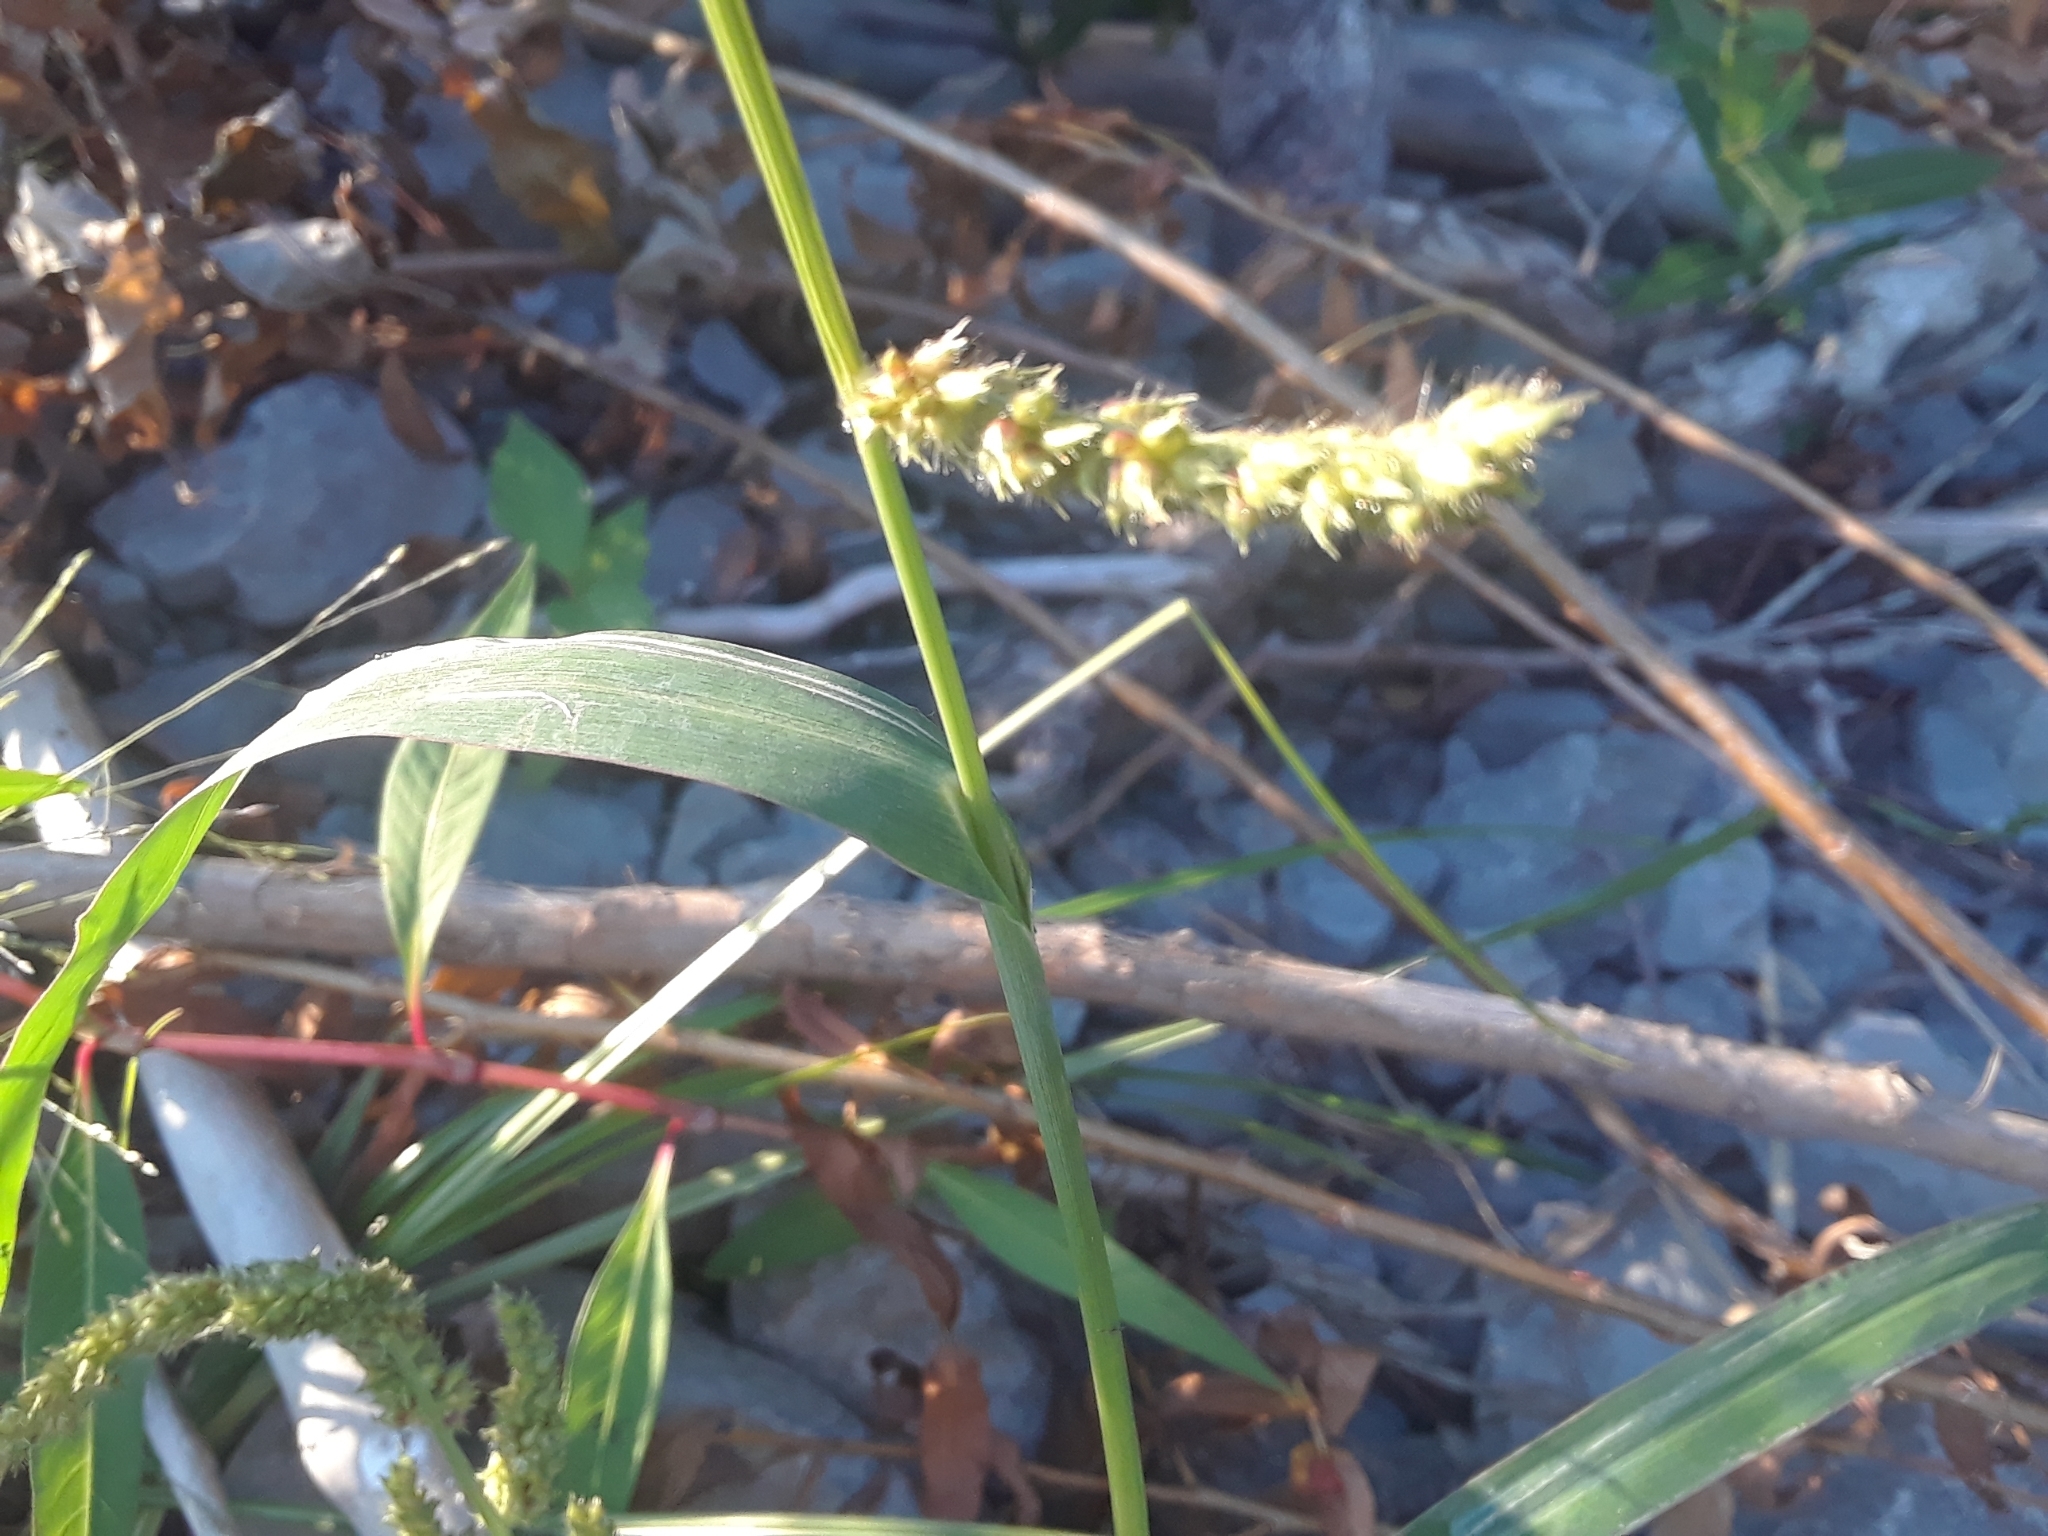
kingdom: Plantae
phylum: Tracheophyta
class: Liliopsida
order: Poales
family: Poaceae
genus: Echinochloa
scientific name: Echinochloa crus-galli
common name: Cockspur
